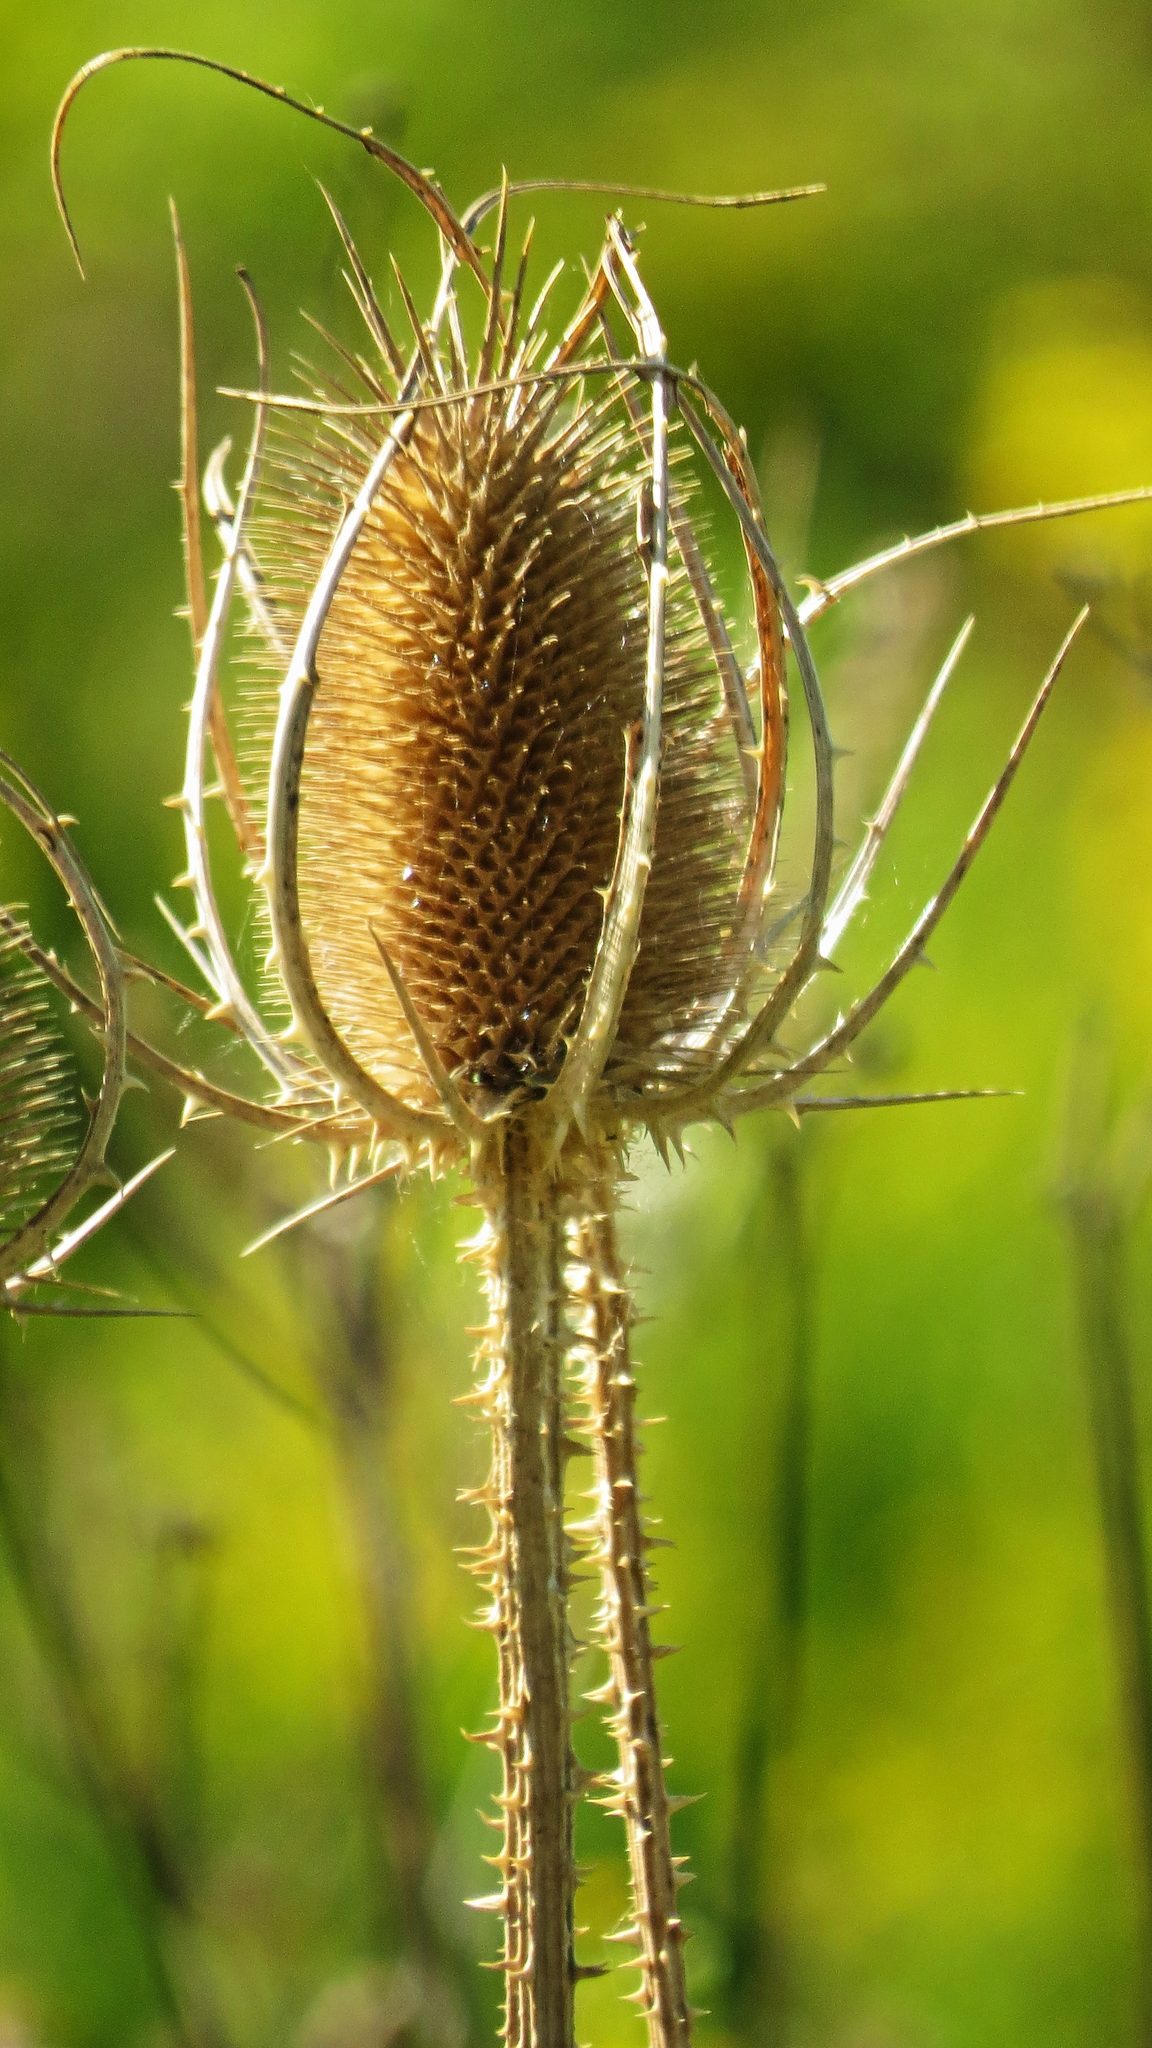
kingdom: Plantae
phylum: Tracheophyta
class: Magnoliopsida
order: Dipsacales
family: Caprifoliaceae
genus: Dipsacus
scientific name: Dipsacus fullonum
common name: Teasel
